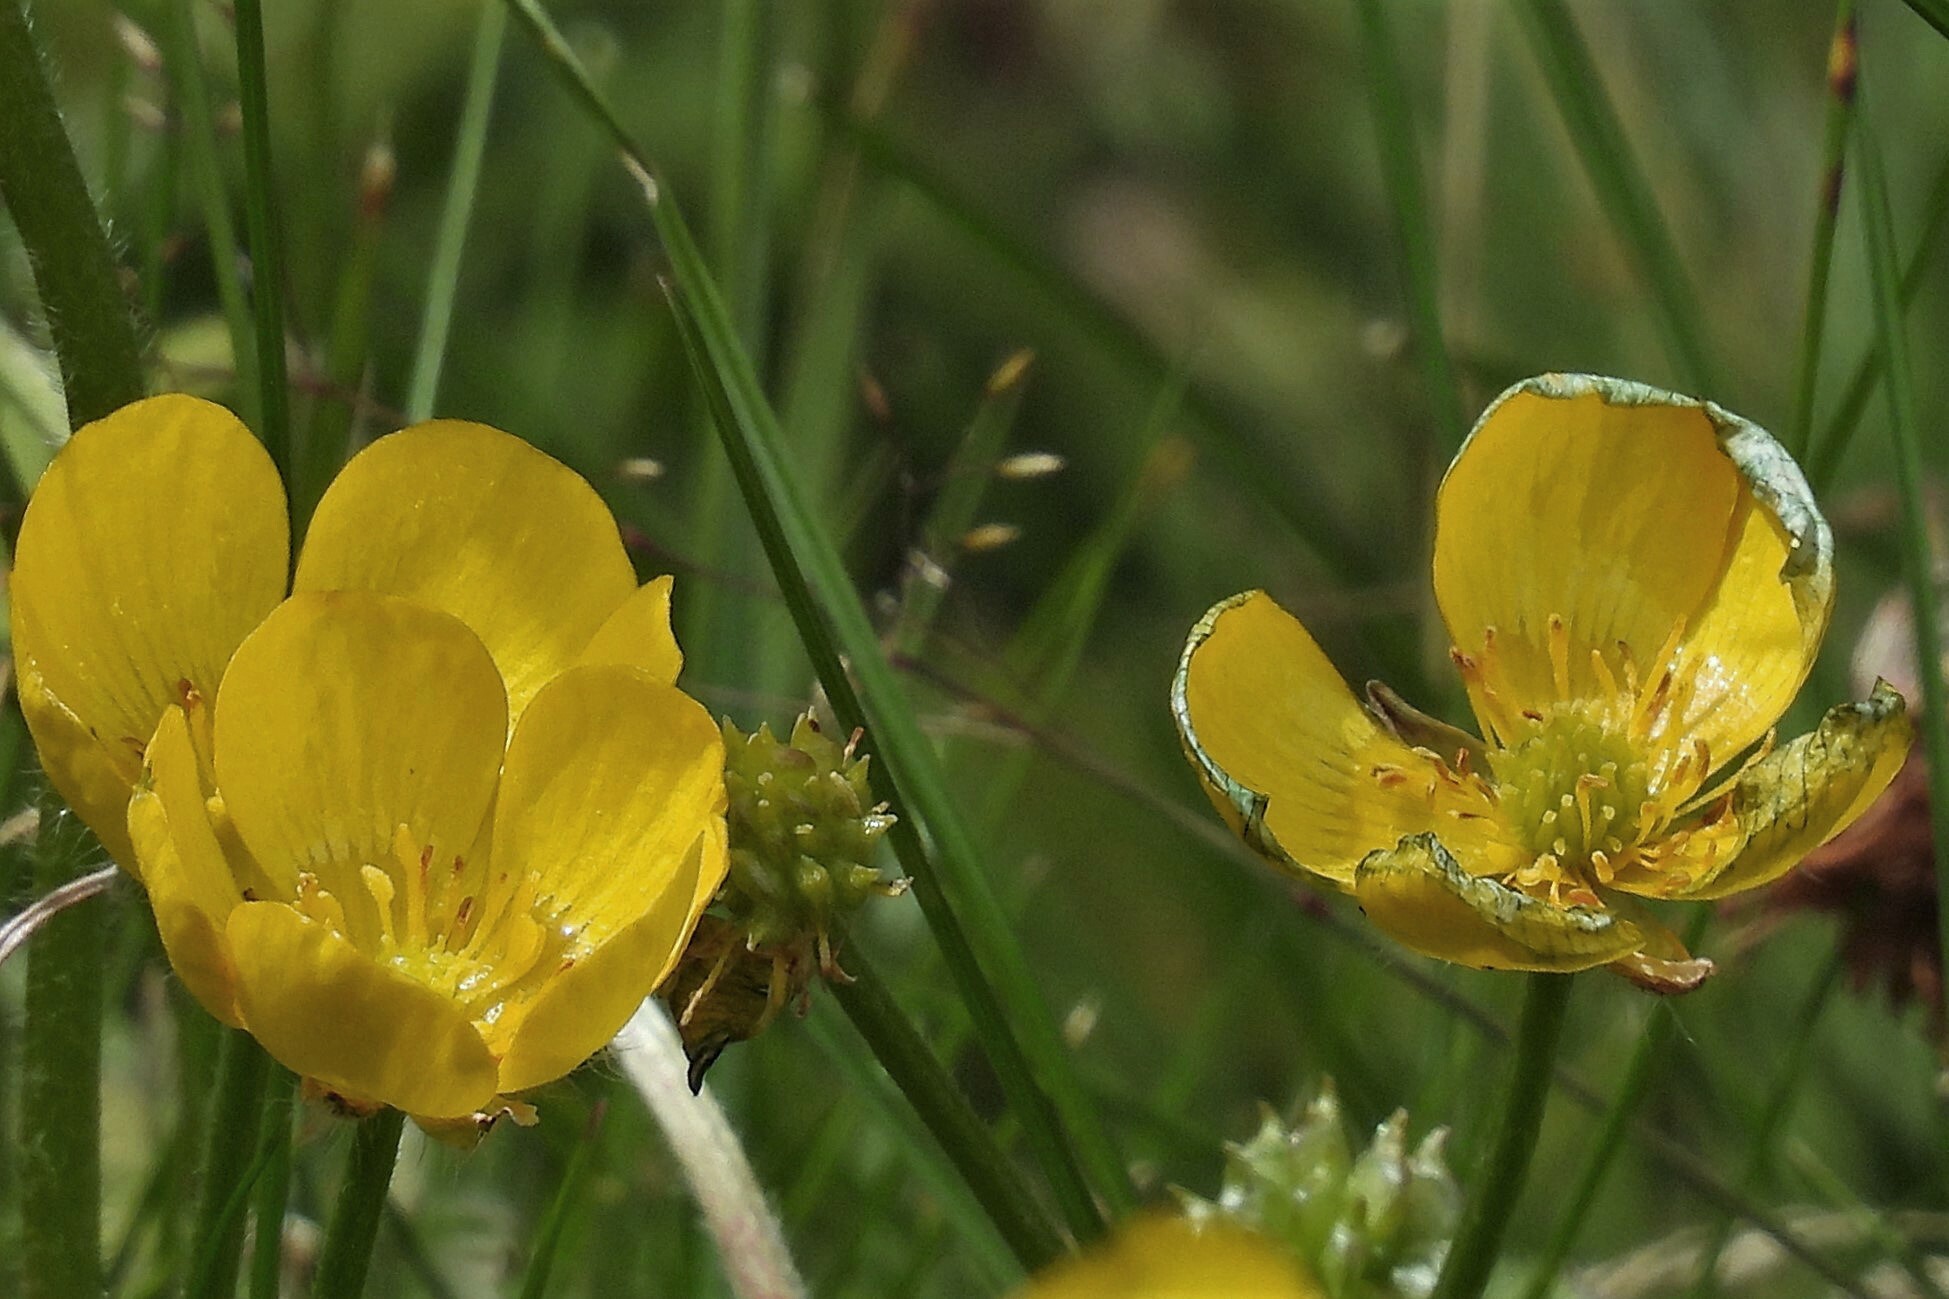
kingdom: Plantae
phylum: Tracheophyta
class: Magnoliopsida
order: Ranunculales
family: Ranunculaceae
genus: Ranunculus
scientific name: Ranunculus repens
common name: Creeping buttercup
